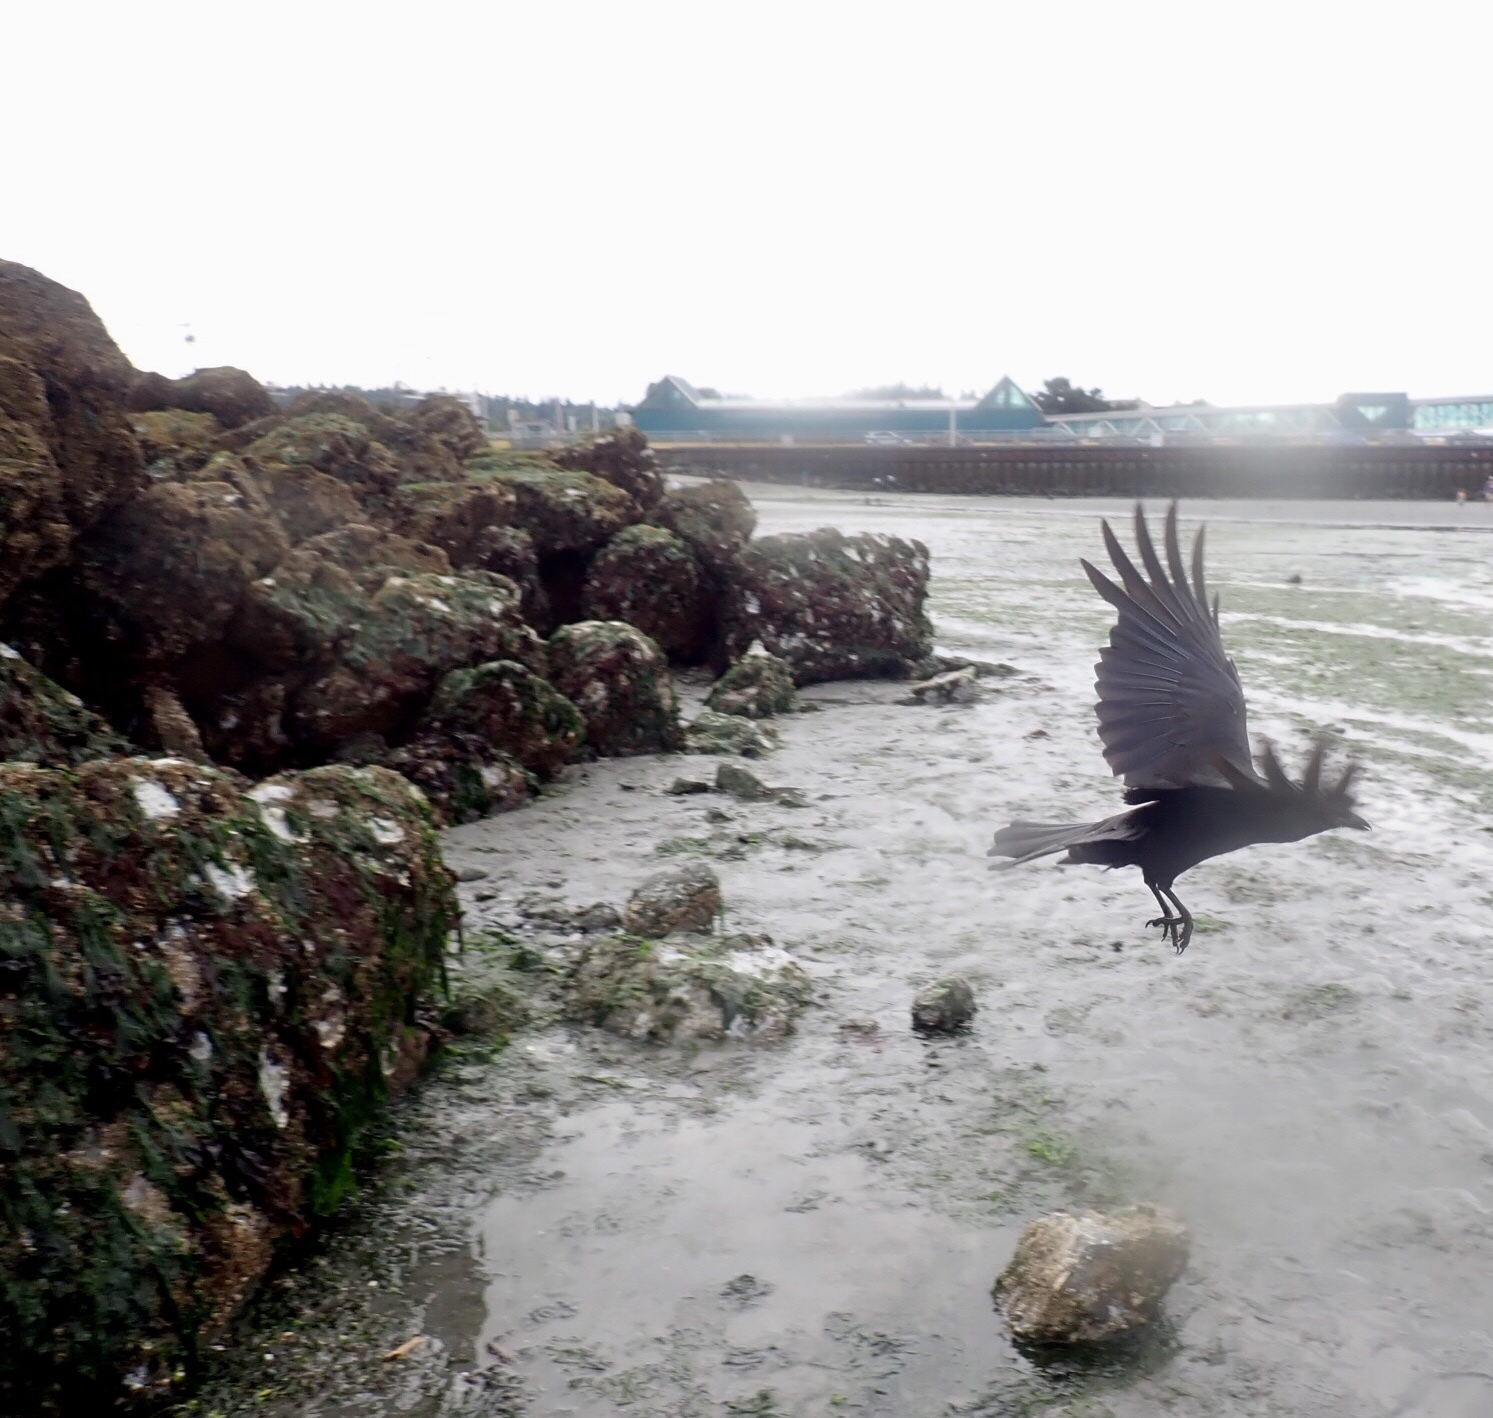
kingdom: Animalia
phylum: Chordata
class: Aves
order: Passeriformes
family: Corvidae
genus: Corvus
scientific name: Corvus brachyrhynchos
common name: American crow
